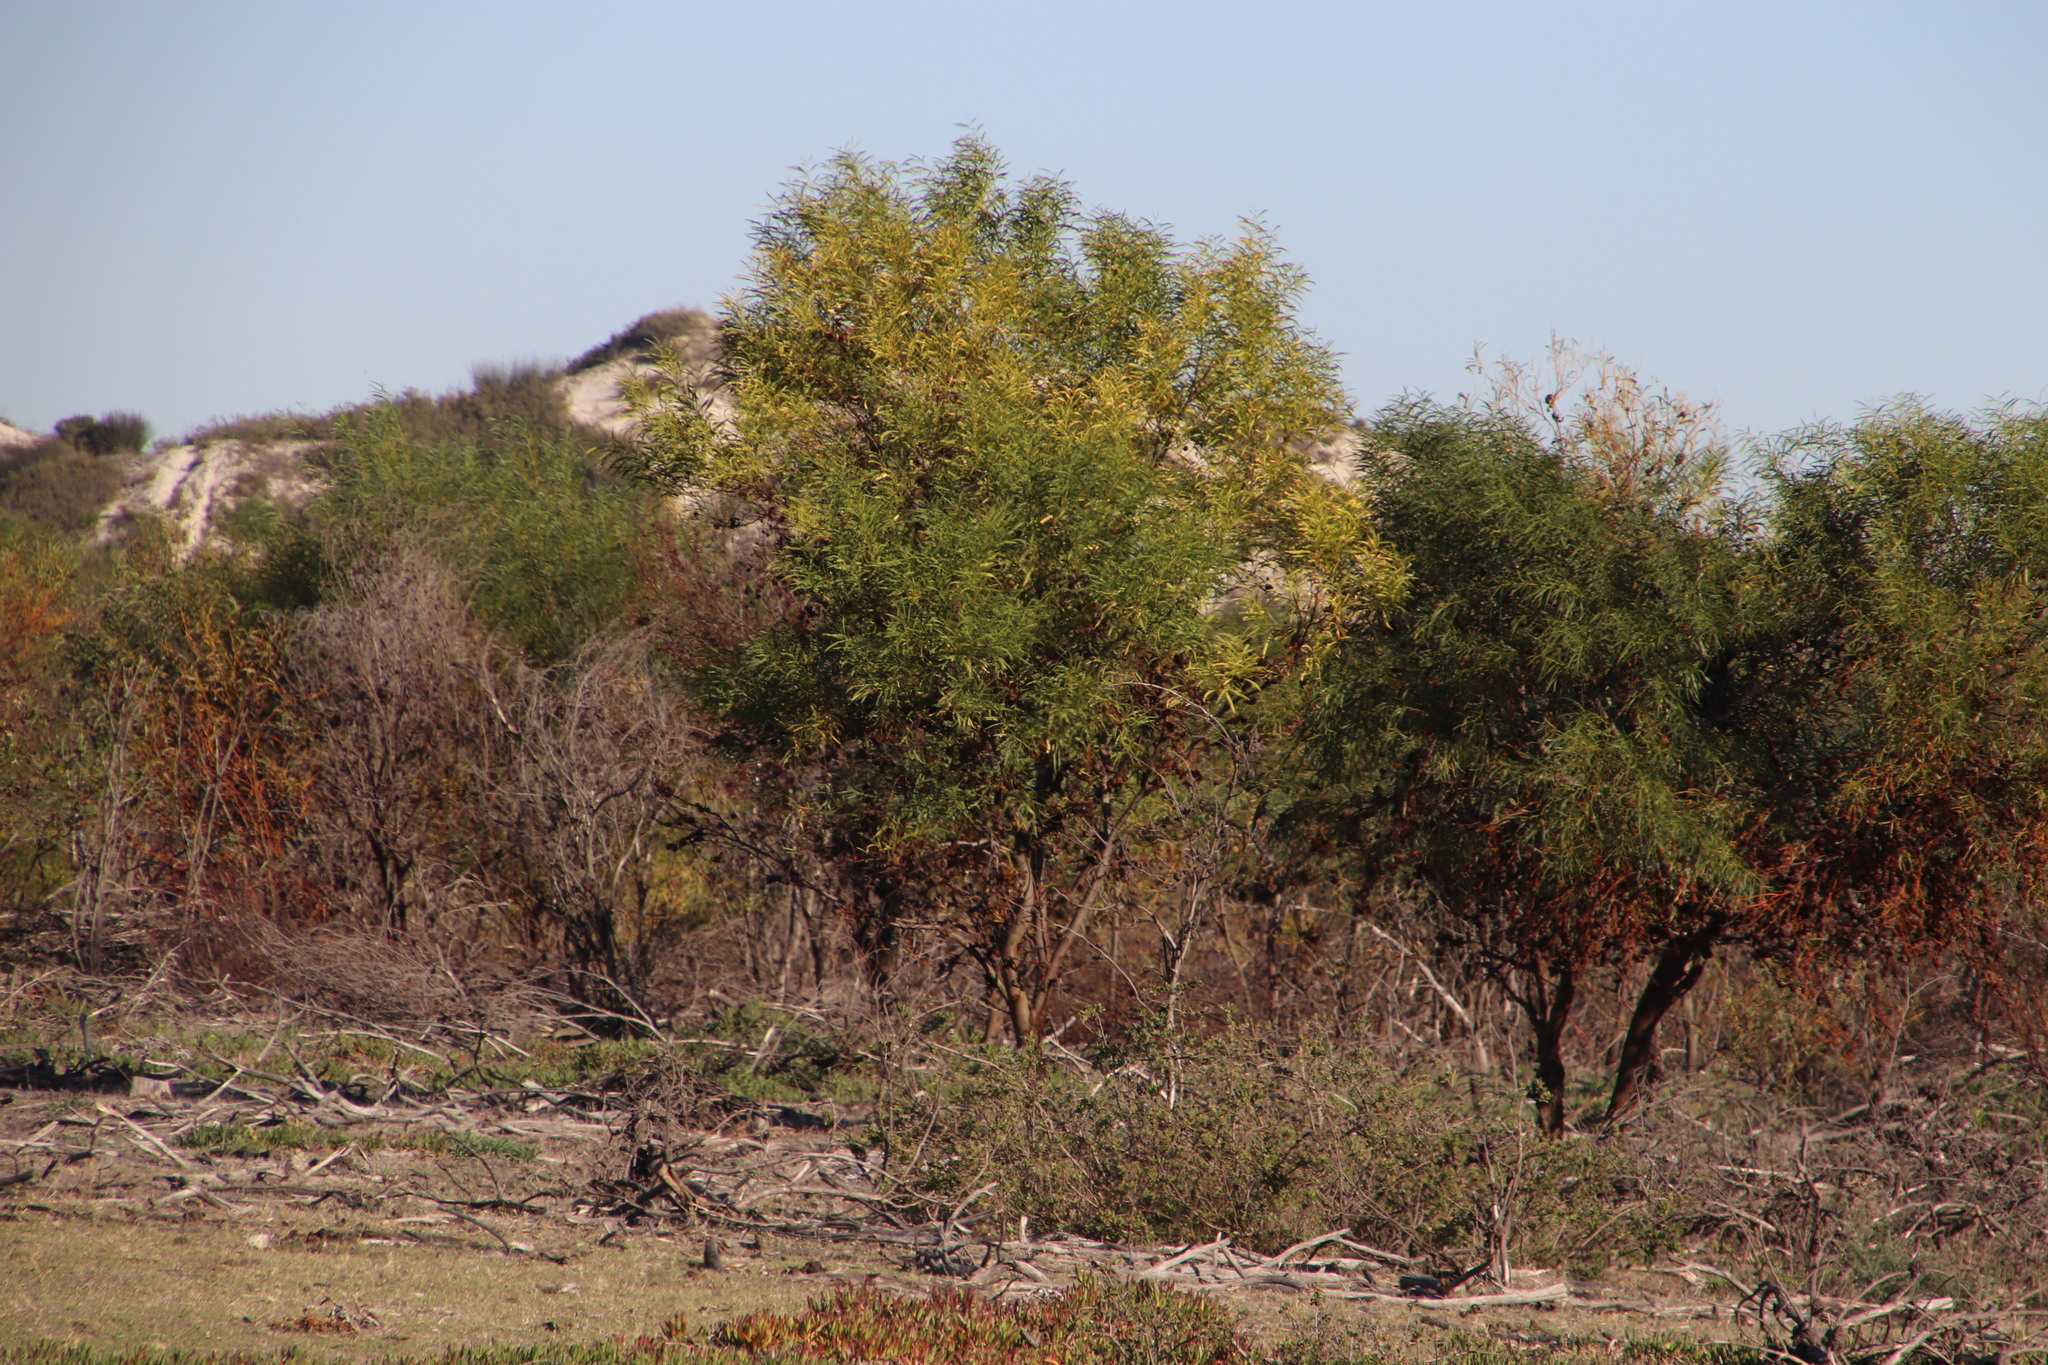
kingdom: Plantae
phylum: Tracheophyta
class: Magnoliopsida
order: Fabales
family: Fabaceae
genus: Acacia
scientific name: Acacia saligna
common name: Orange wattle
